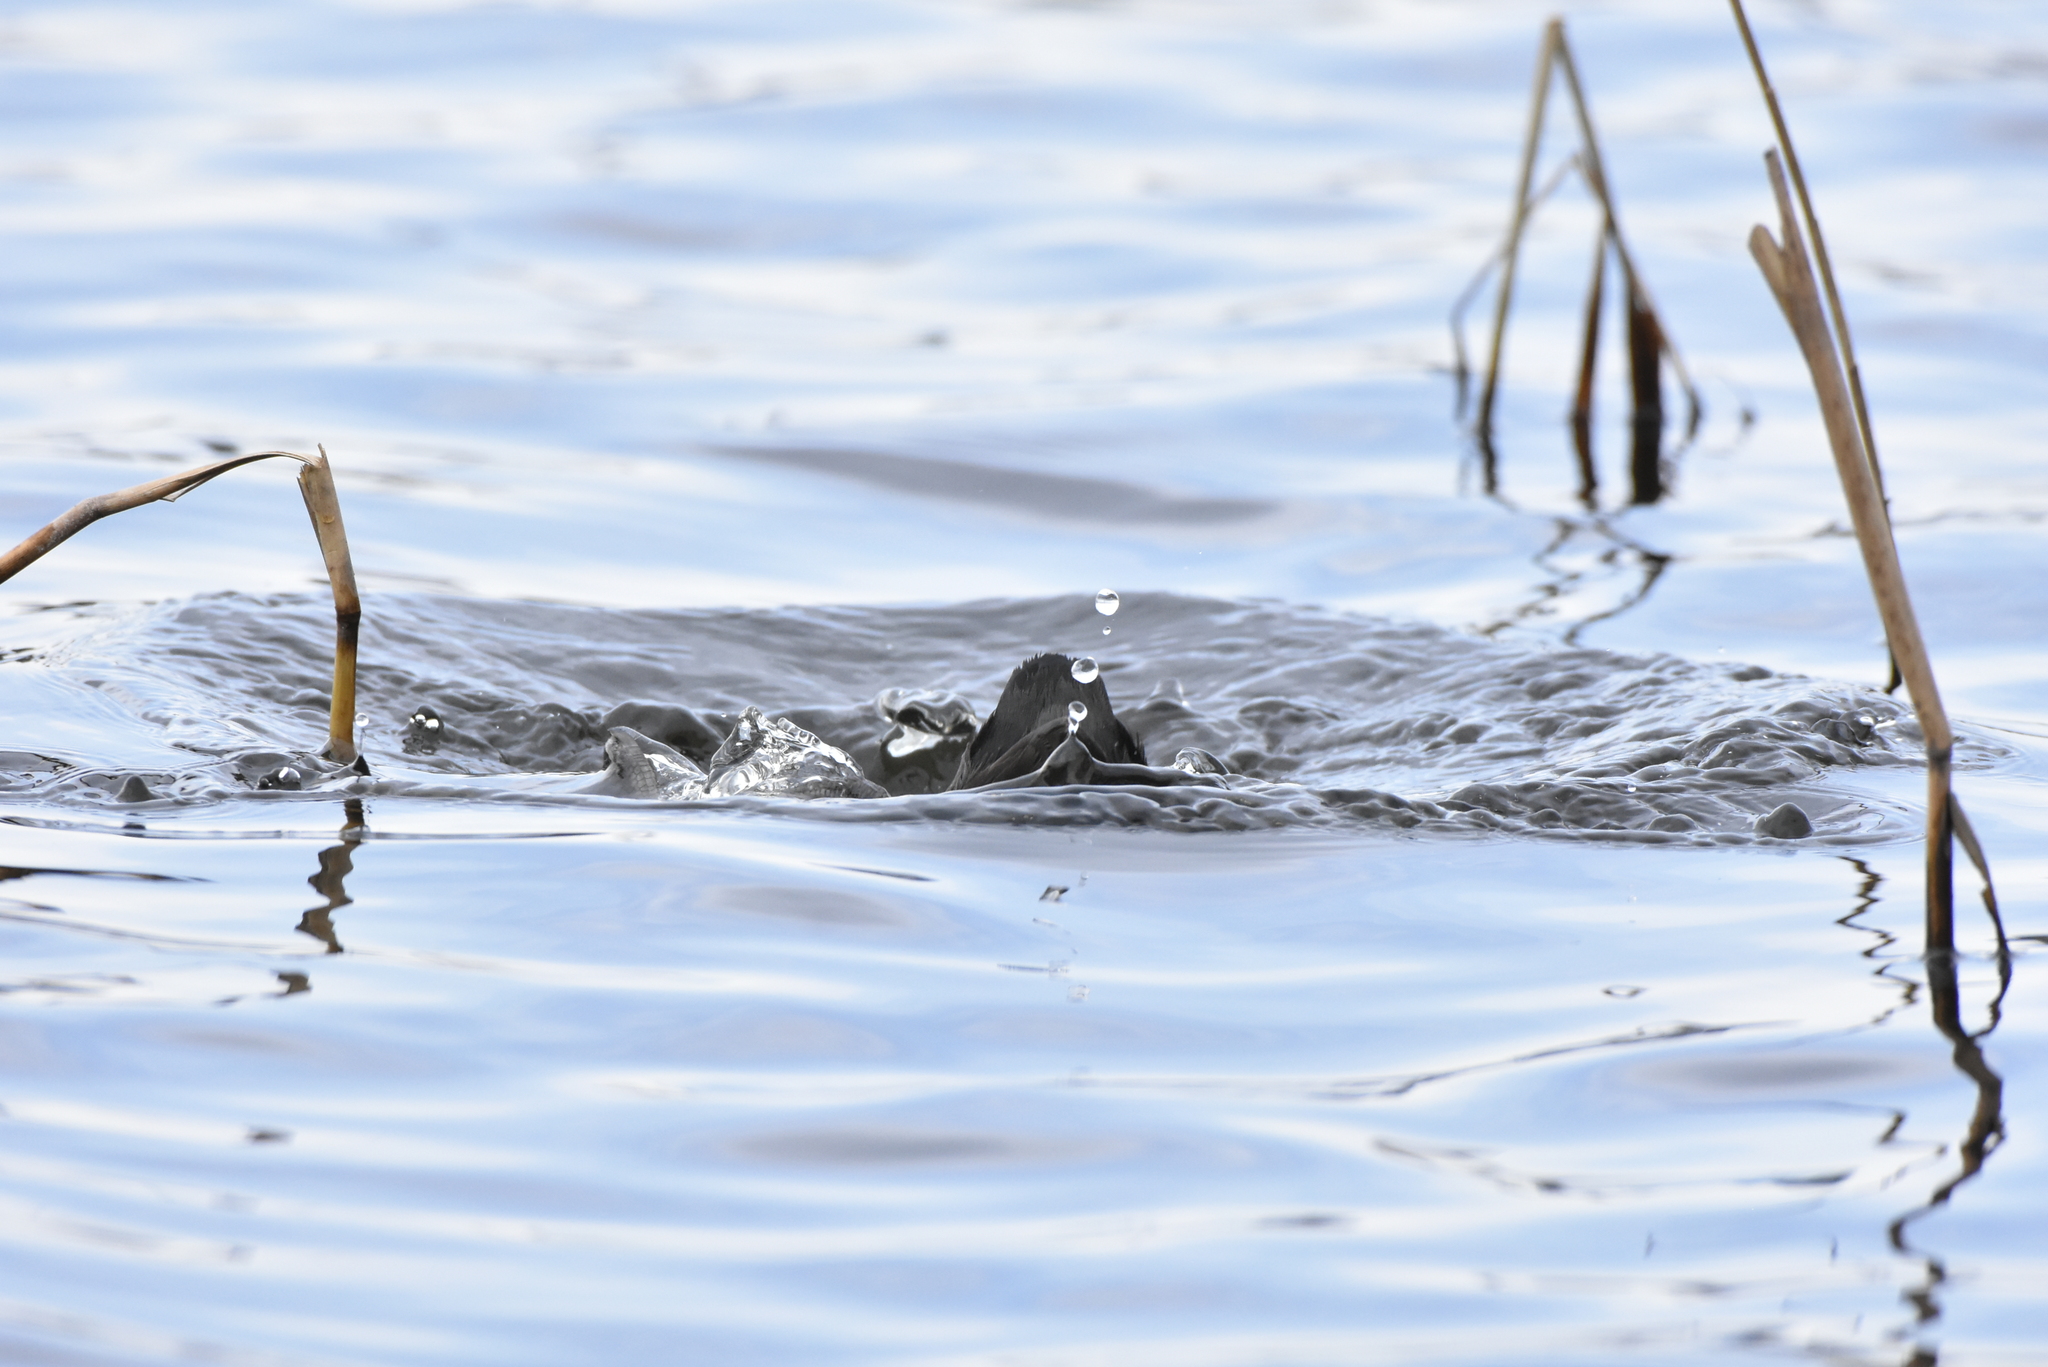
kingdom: Animalia
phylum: Chordata
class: Aves
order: Gruiformes
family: Rallidae
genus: Fulica
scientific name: Fulica atra
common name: Eurasian coot
